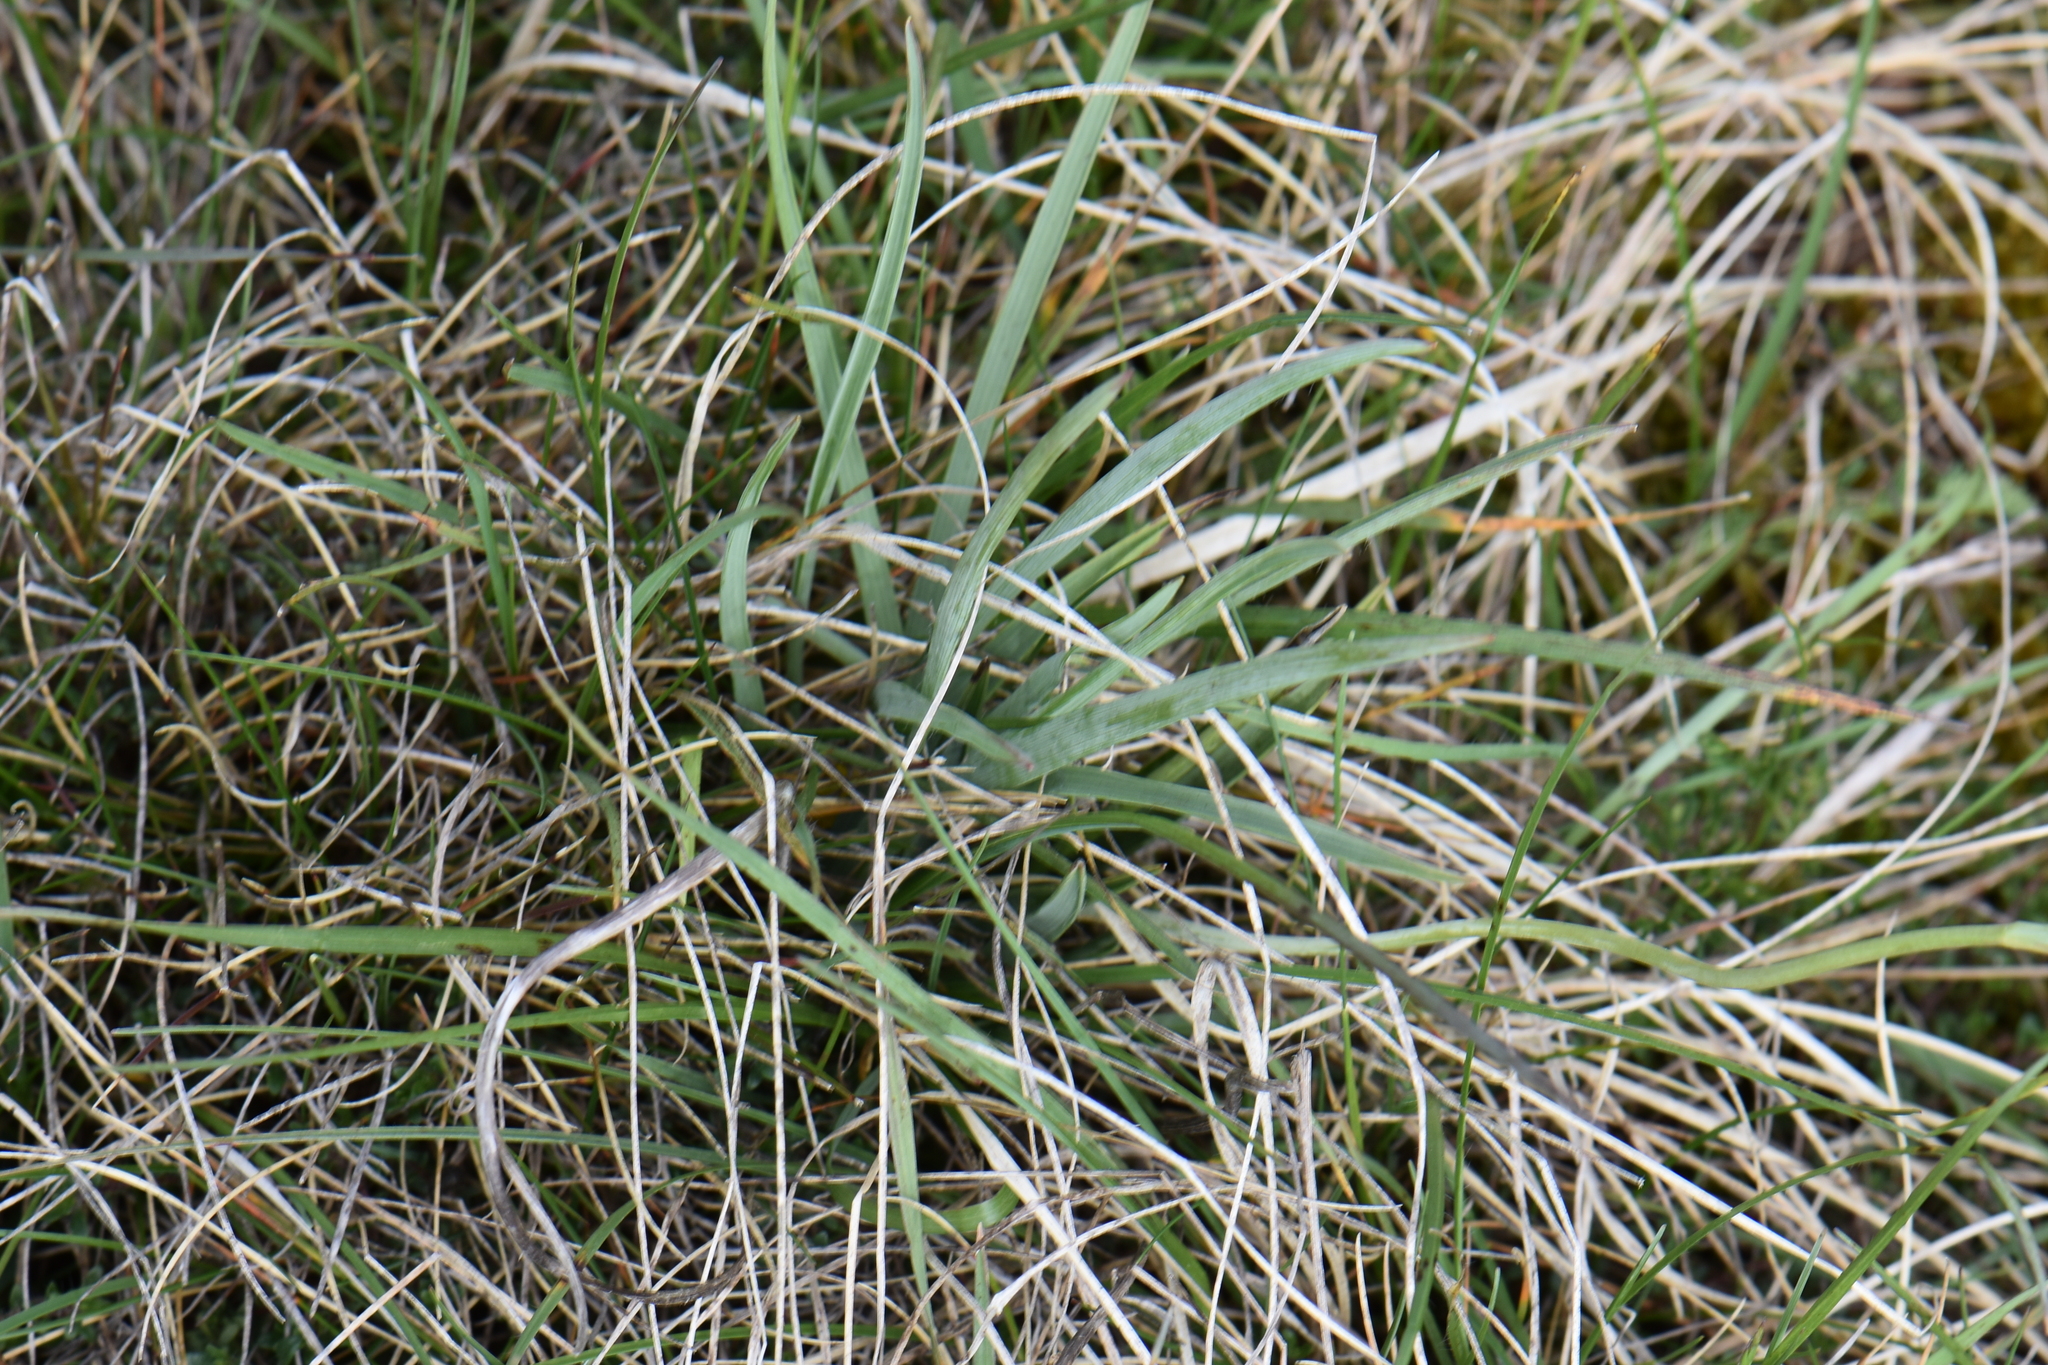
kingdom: Plantae
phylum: Tracheophyta
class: Magnoliopsida
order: Ranunculales
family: Ranunculaceae
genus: Ranunculus
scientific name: Ranunculus gramineus
